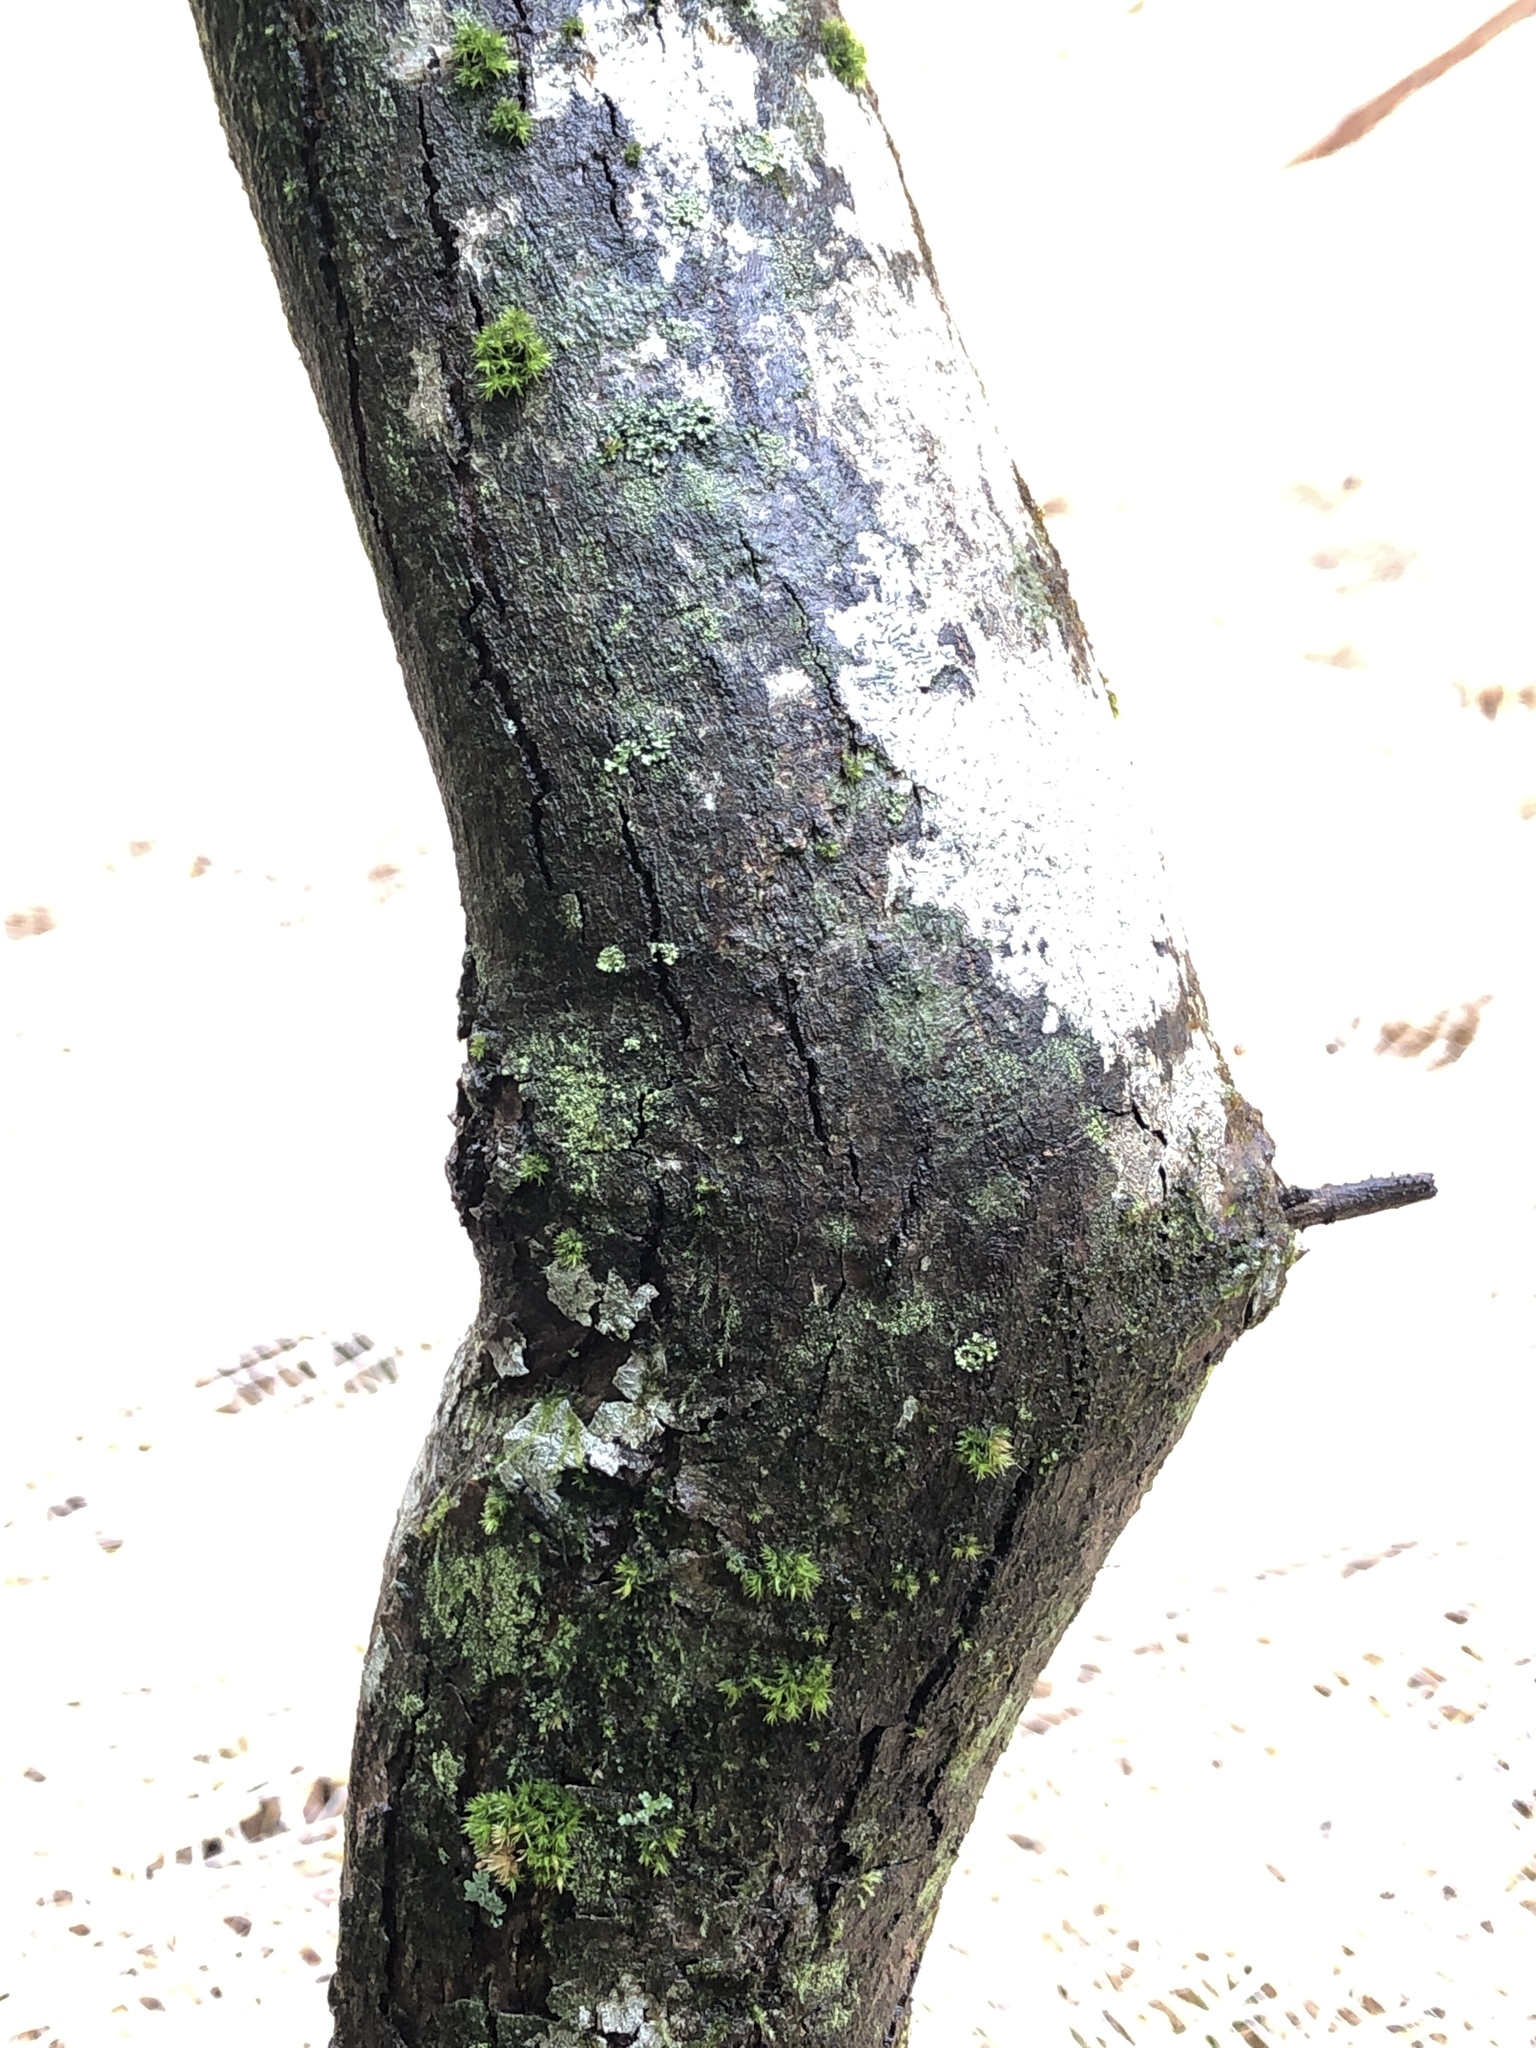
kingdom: Plantae
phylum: Tracheophyta
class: Magnoliopsida
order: Fagales
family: Fagaceae
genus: Castanea
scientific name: Castanea dentata
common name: American chestnut
